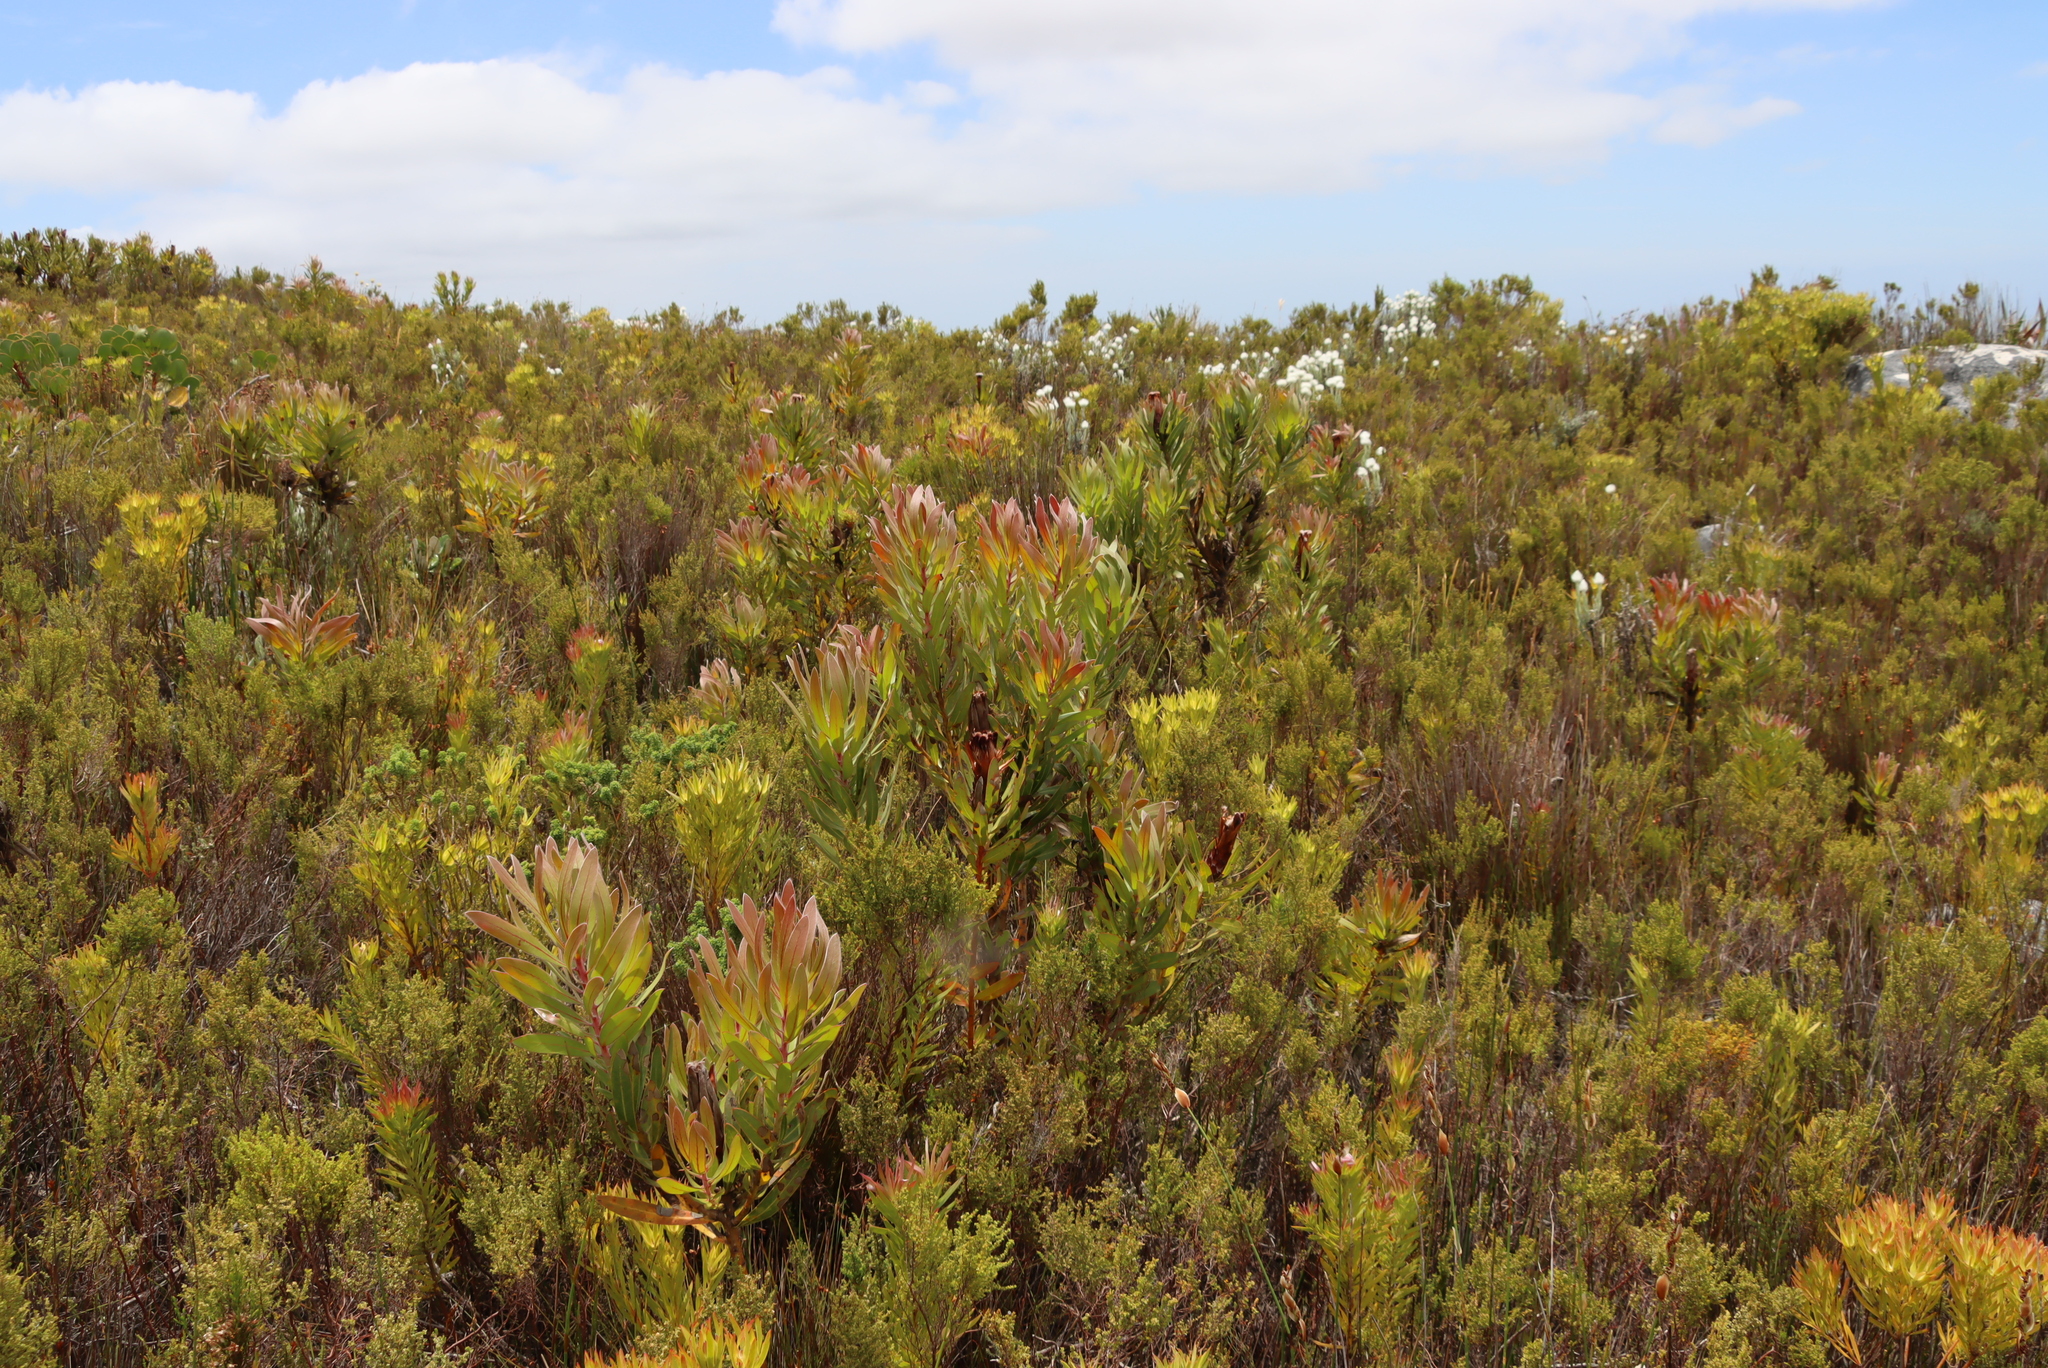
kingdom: Plantae
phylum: Tracheophyta
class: Magnoliopsida
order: Proteales
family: Proteaceae
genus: Protea
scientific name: Protea lepidocarpodendron
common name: Black-bearded protea
